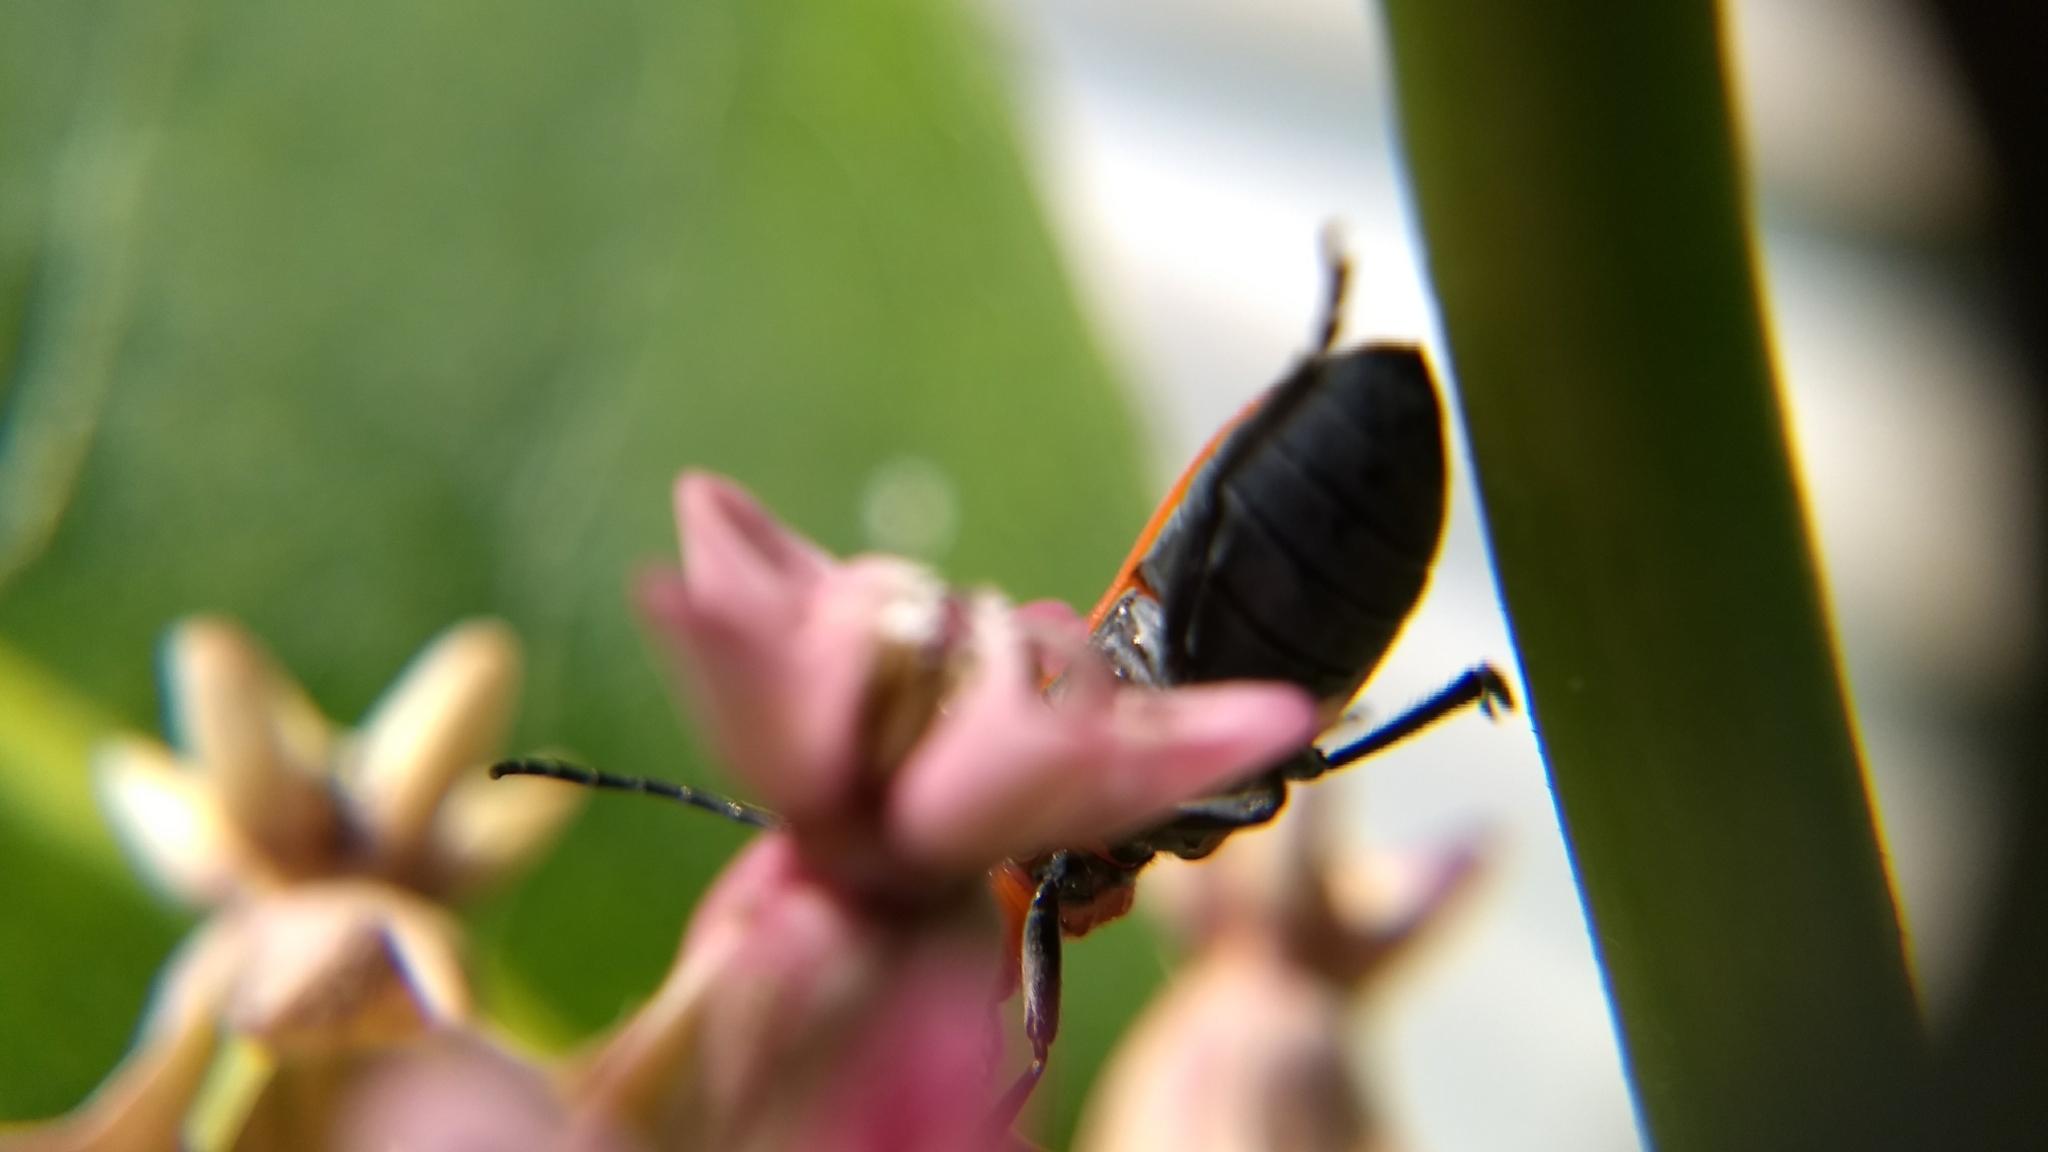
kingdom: Animalia
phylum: Arthropoda
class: Insecta
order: Coleoptera
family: Cerambycidae
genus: Tetraopes
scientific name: Tetraopes tetrophthalmus
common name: Red milkweed beetle
